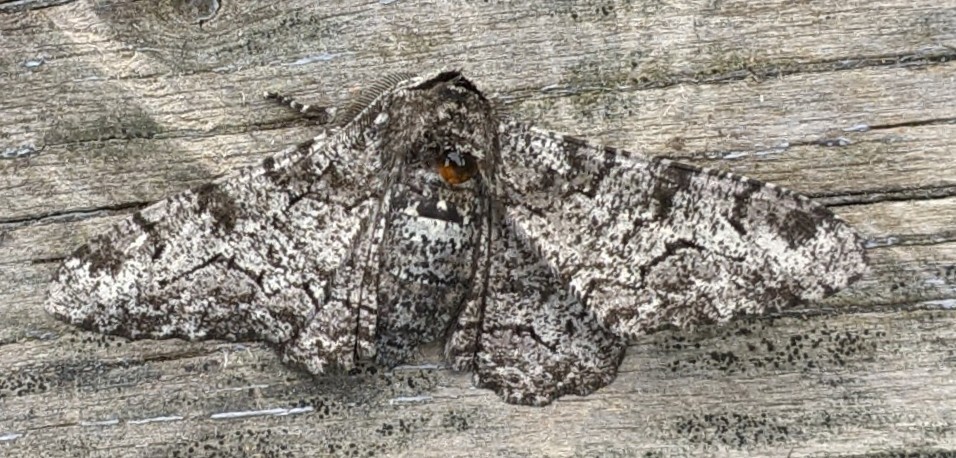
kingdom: Animalia
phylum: Arthropoda
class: Insecta
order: Lepidoptera
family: Geometridae
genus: Biston
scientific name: Biston betularia
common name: Peppered moth
